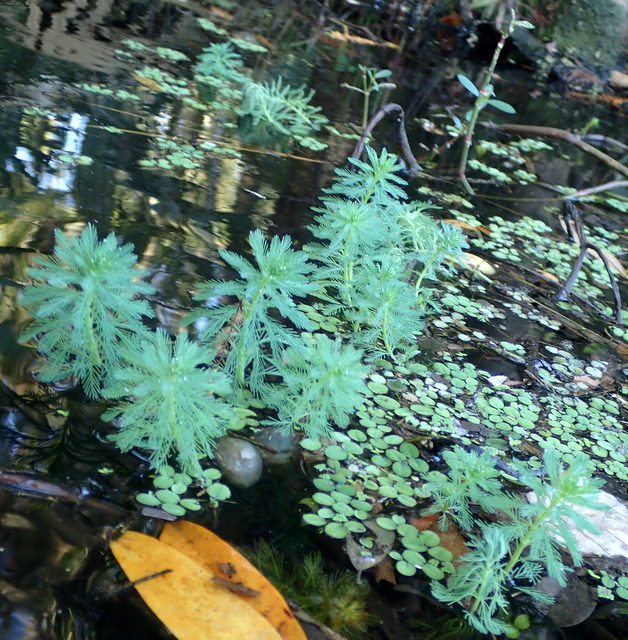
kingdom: Plantae
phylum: Tracheophyta
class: Magnoliopsida
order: Saxifragales
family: Haloragaceae
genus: Myriophyllum
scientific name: Myriophyllum aquaticum
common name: Parrot's feather
